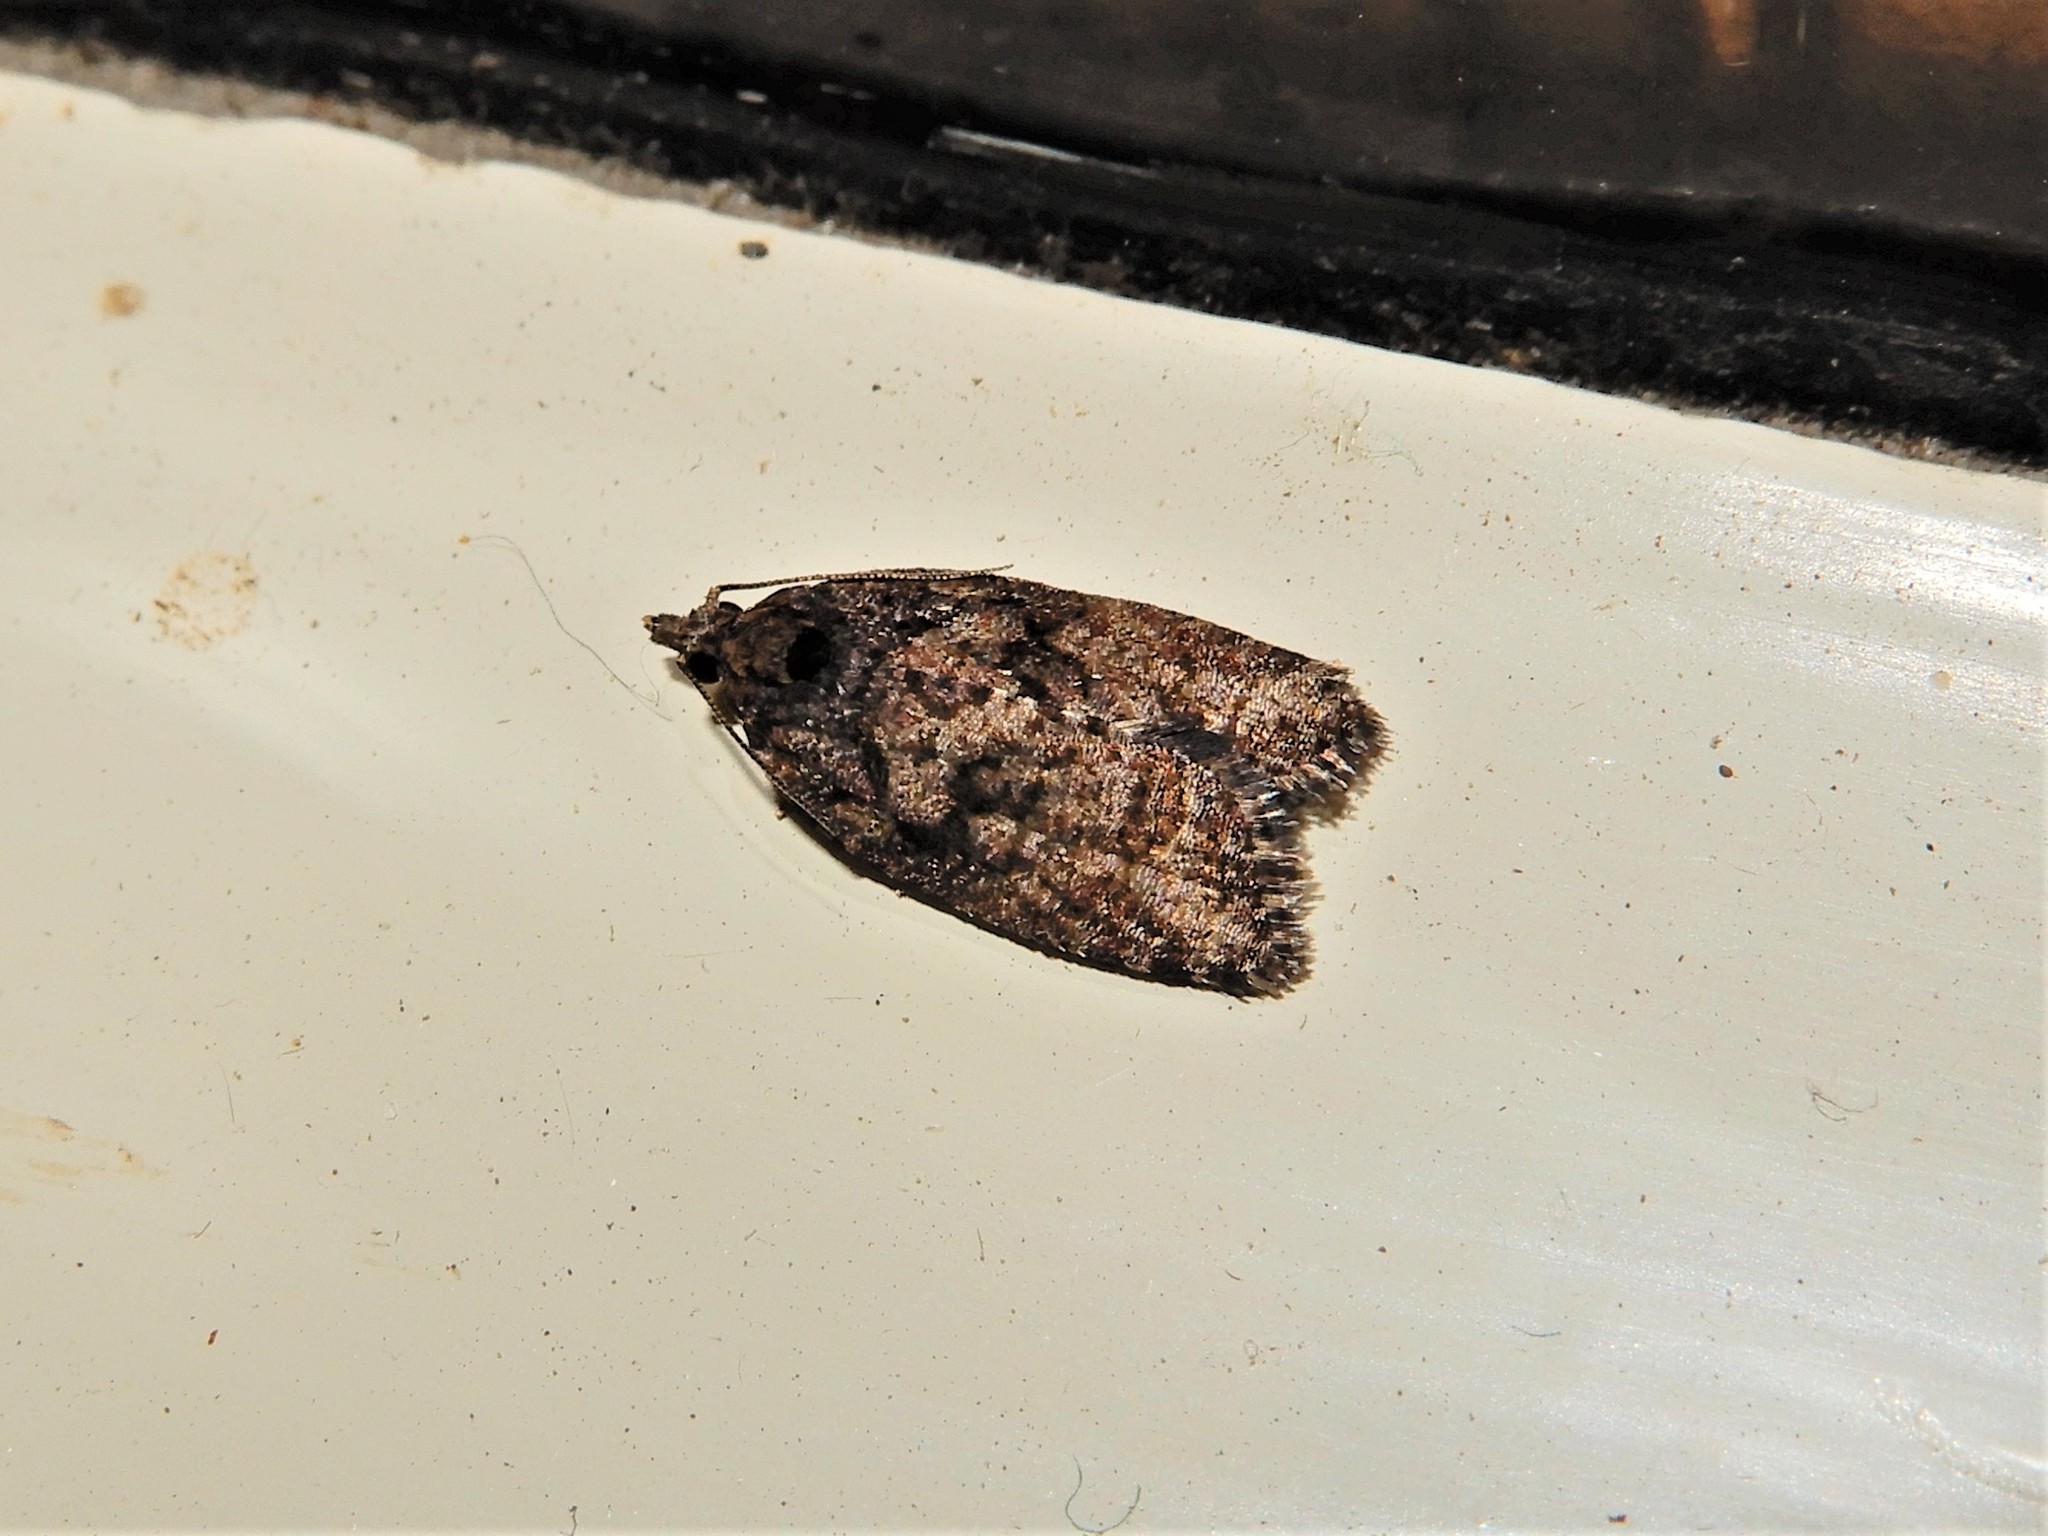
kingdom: Animalia
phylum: Arthropoda
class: Insecta
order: Lepidoptera
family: Tortricidae
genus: Capua
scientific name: Capua intractana
